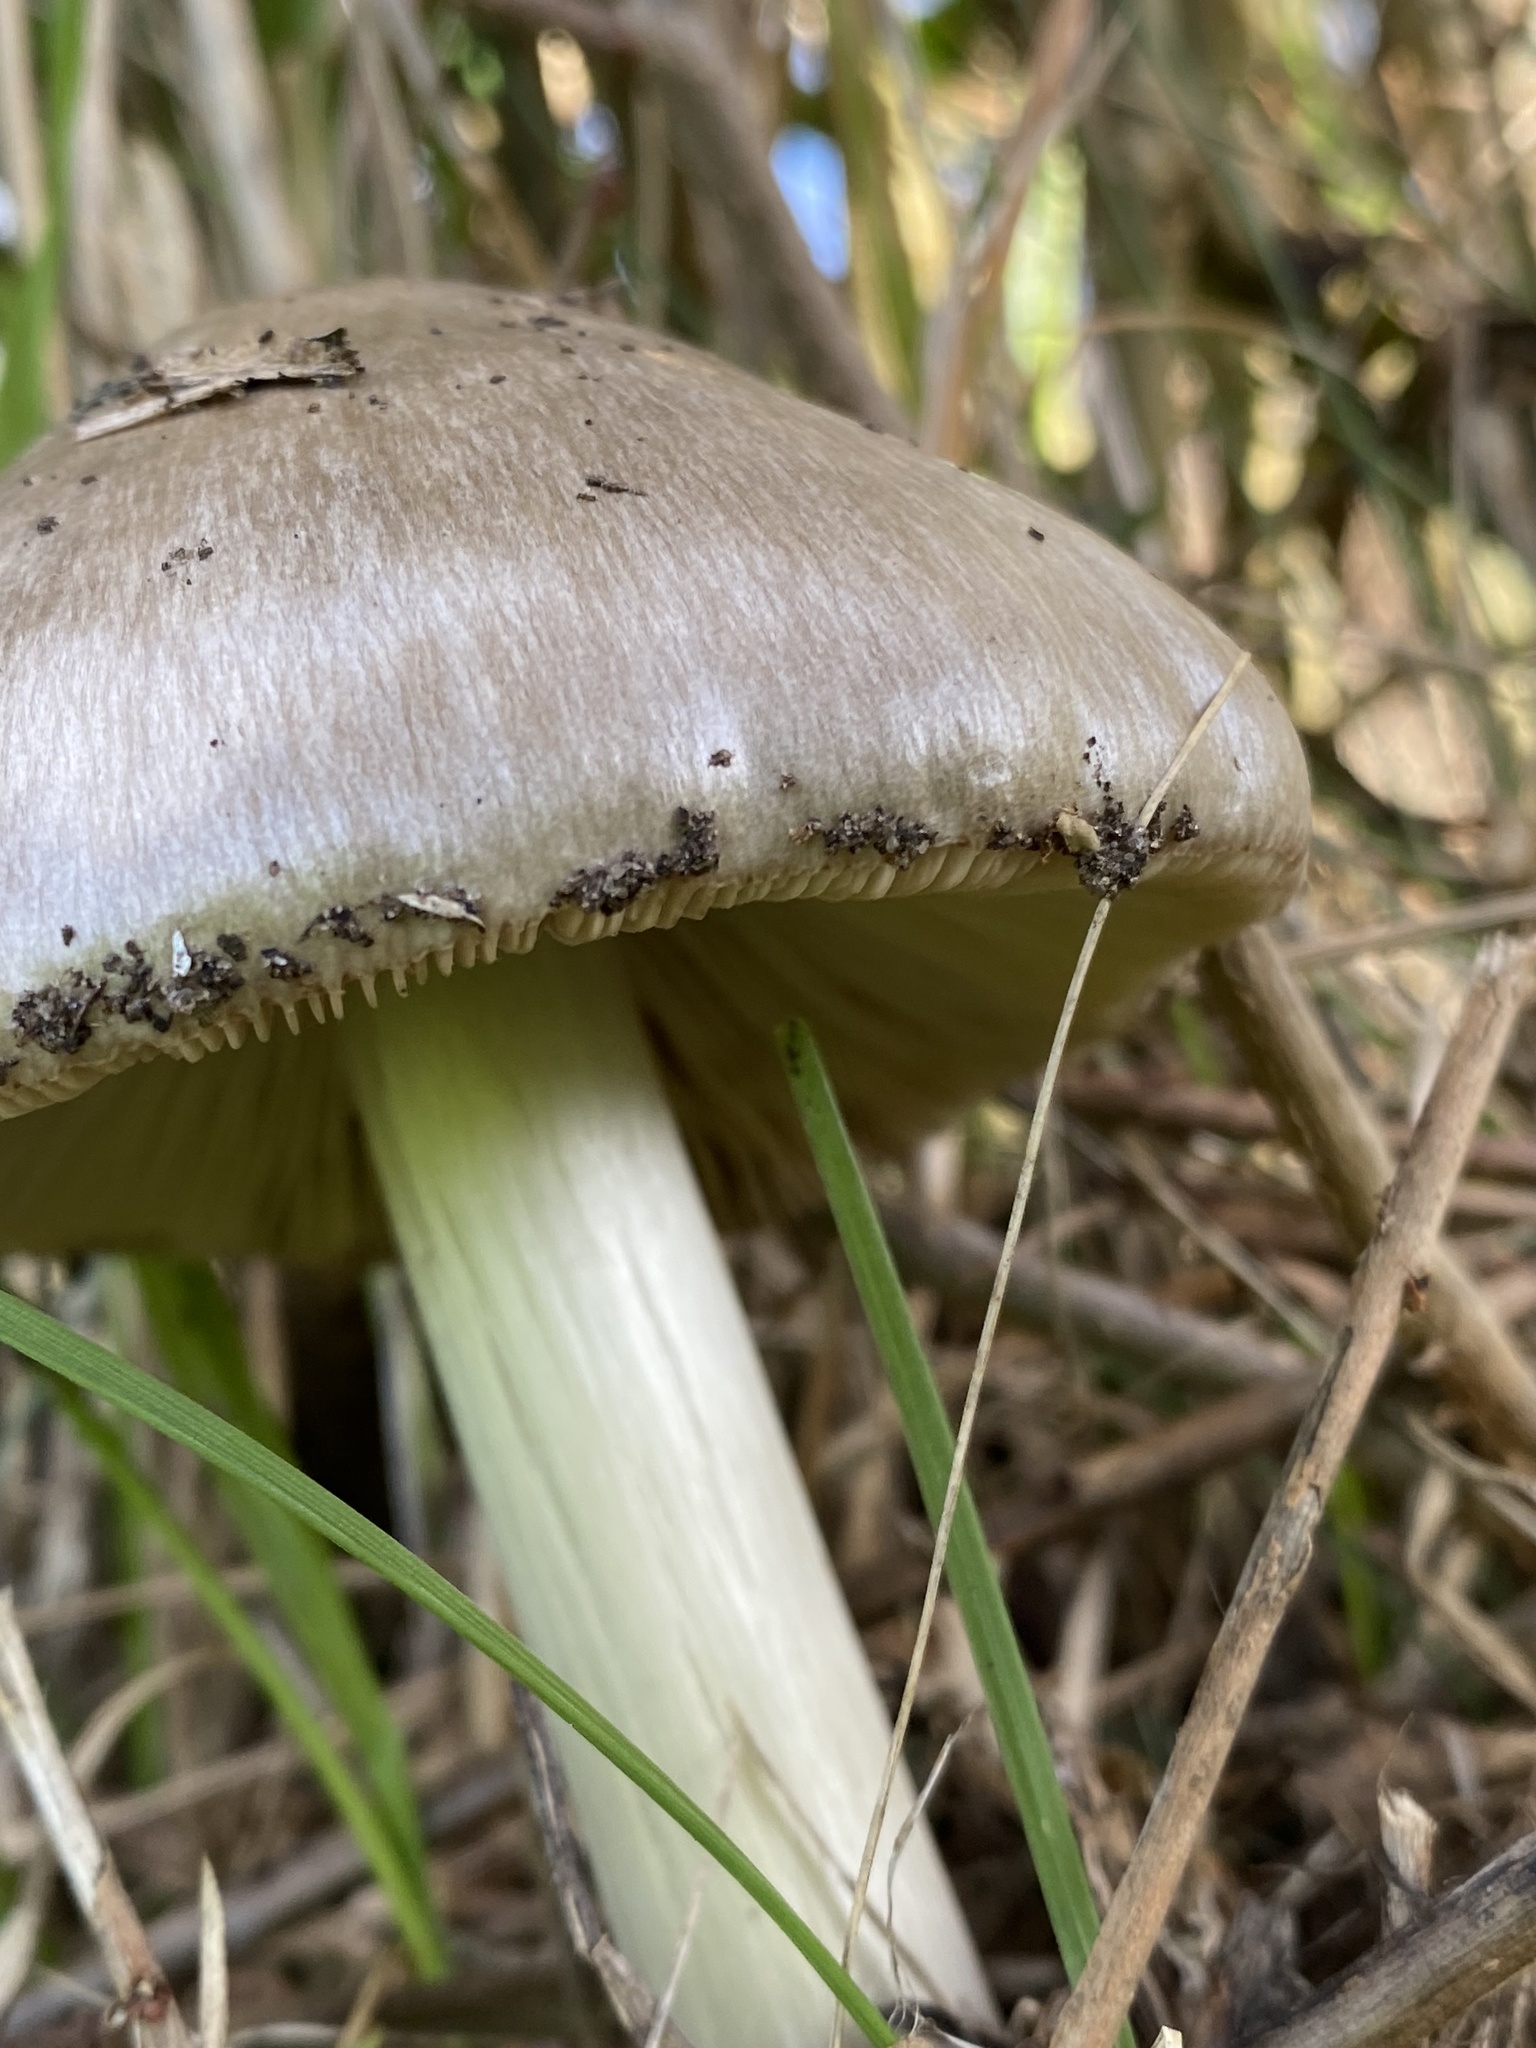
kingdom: Fungi
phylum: Basidiomycota
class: Agaricomycetes
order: Agaricales
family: Pluteaceae
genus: Volvopluteus
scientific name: Volvopluteus gloiocephalus
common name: Stubble rosegill
